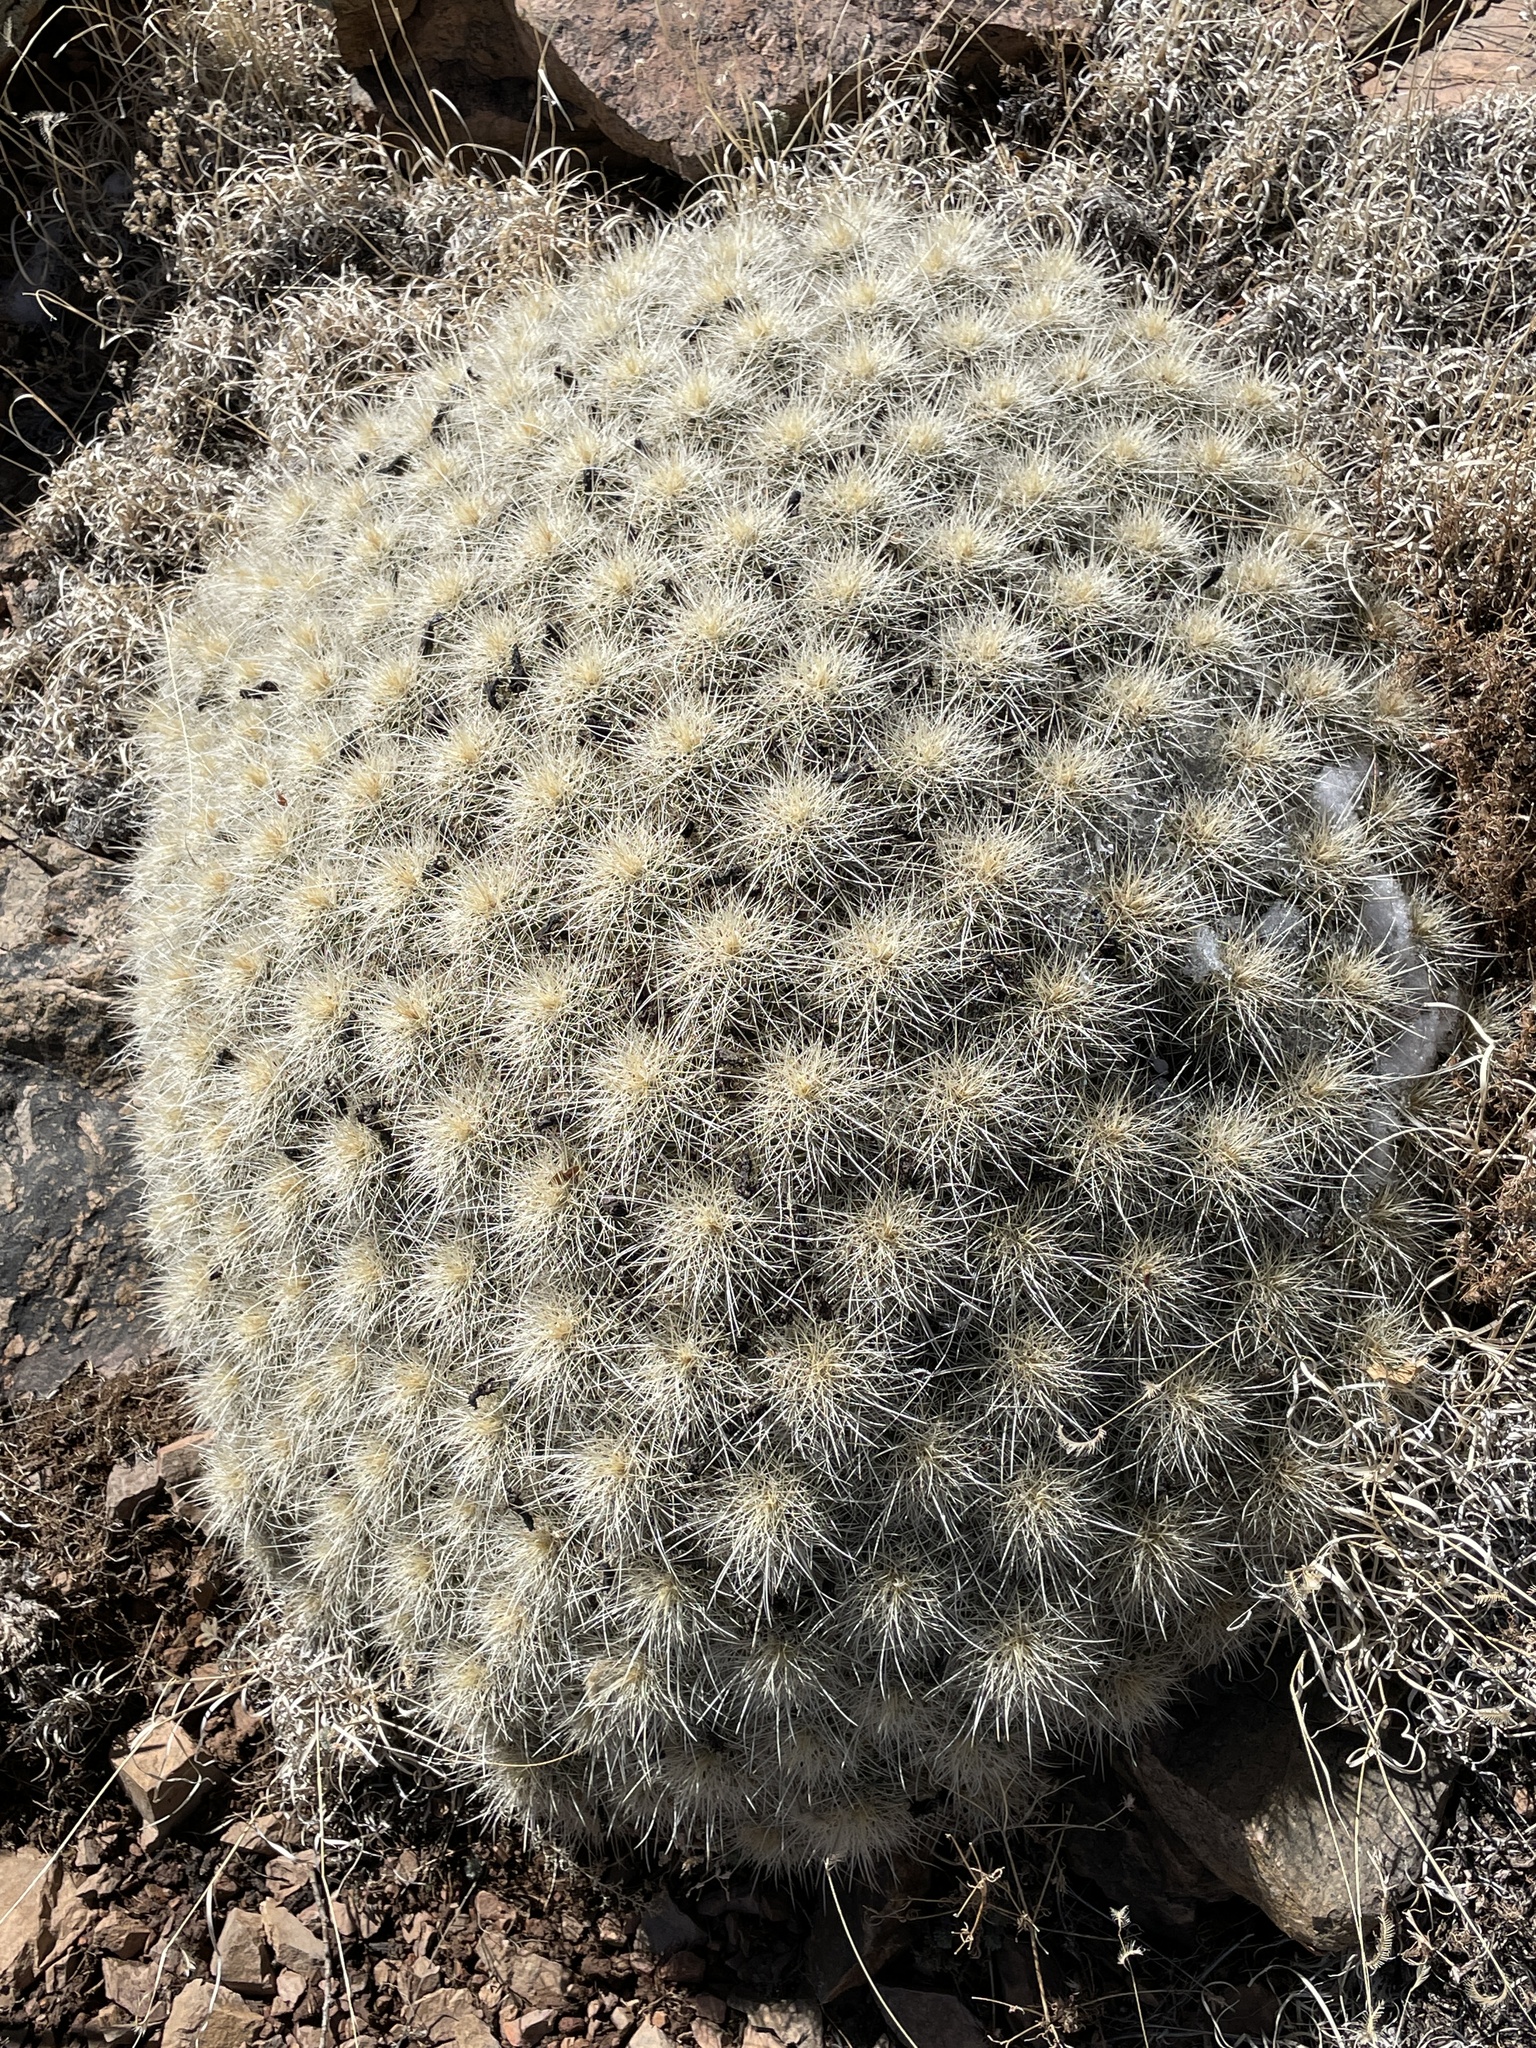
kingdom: Plantae
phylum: Tracheophyta
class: Magnoliopsida
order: Caryophyllales
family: Cactaceae
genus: Echinocereus
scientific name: Echinocereus coccineus
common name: Scarlet hedgehog cactus
